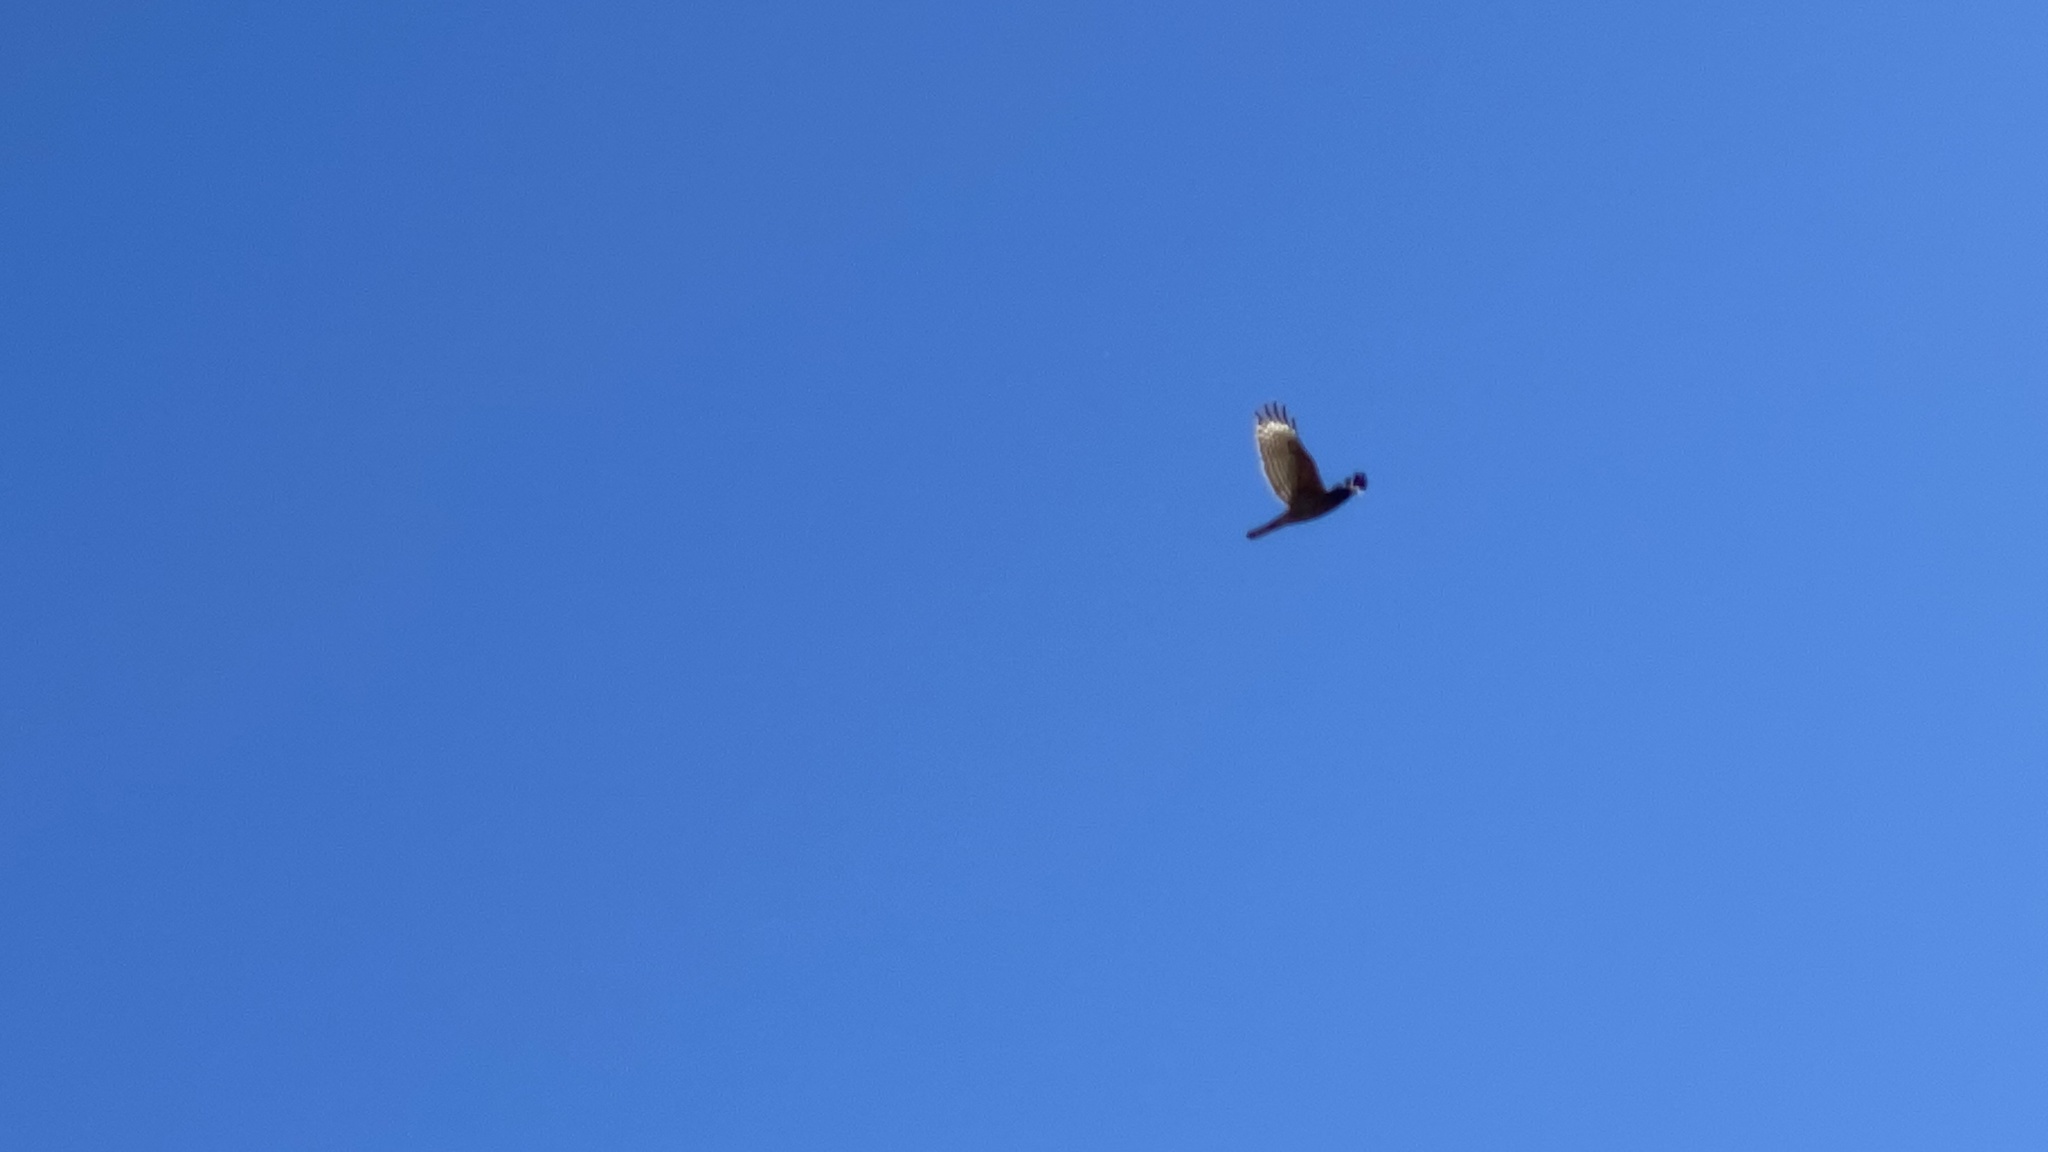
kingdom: Animalia
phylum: Chordata
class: Aves
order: Accipitriformes
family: Accipitridae
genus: Buteo
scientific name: Buteo lineatus
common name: Red-shouldered hawk
